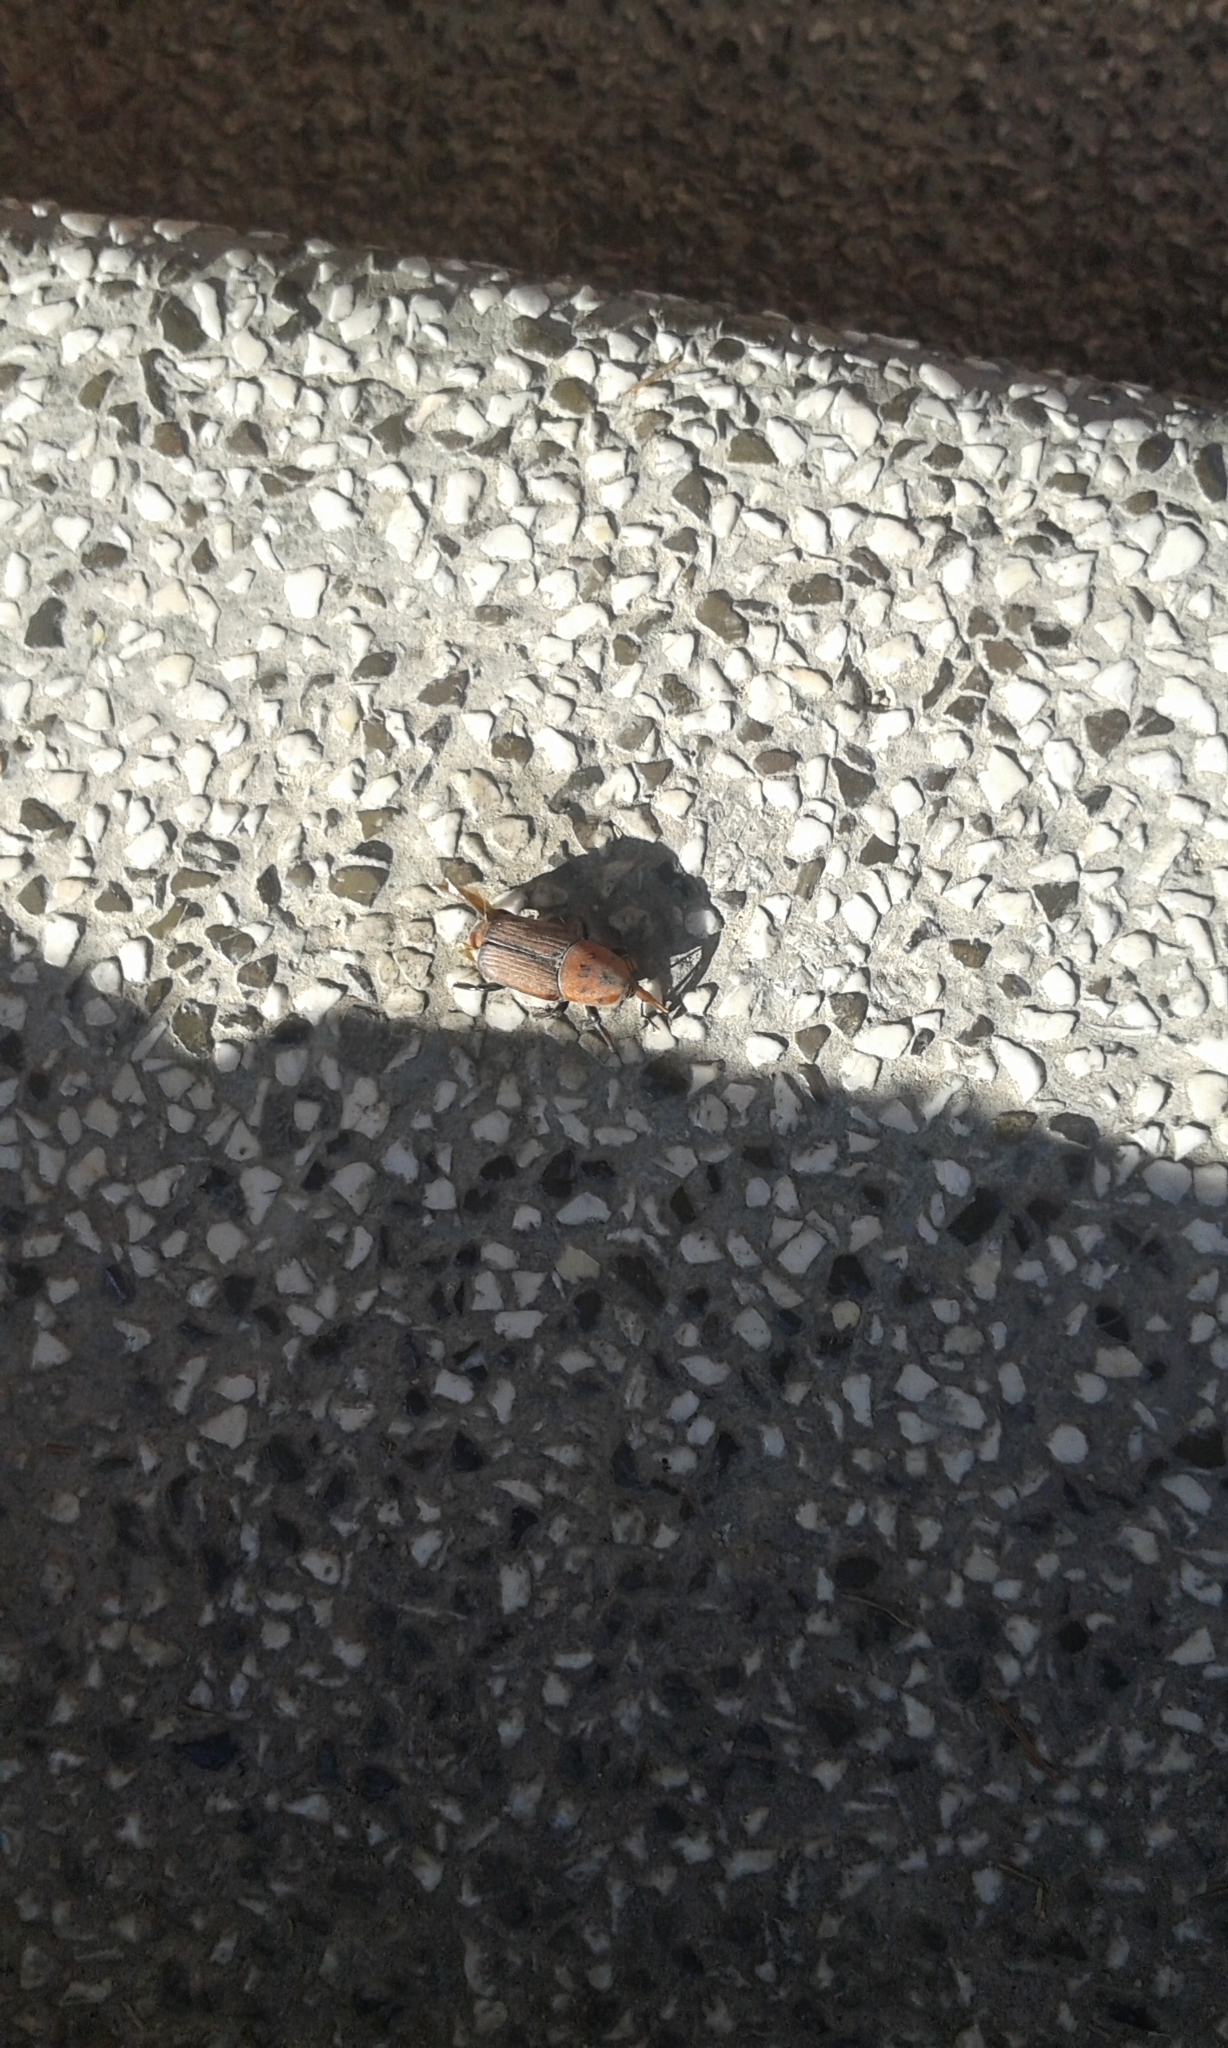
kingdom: Animalia
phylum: Arthropoda
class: Insecta
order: Coleoptera
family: Dryophthoridae
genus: Rhynchophorus
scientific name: Rhynchophorus ferrugineus
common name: Red palm weevil
